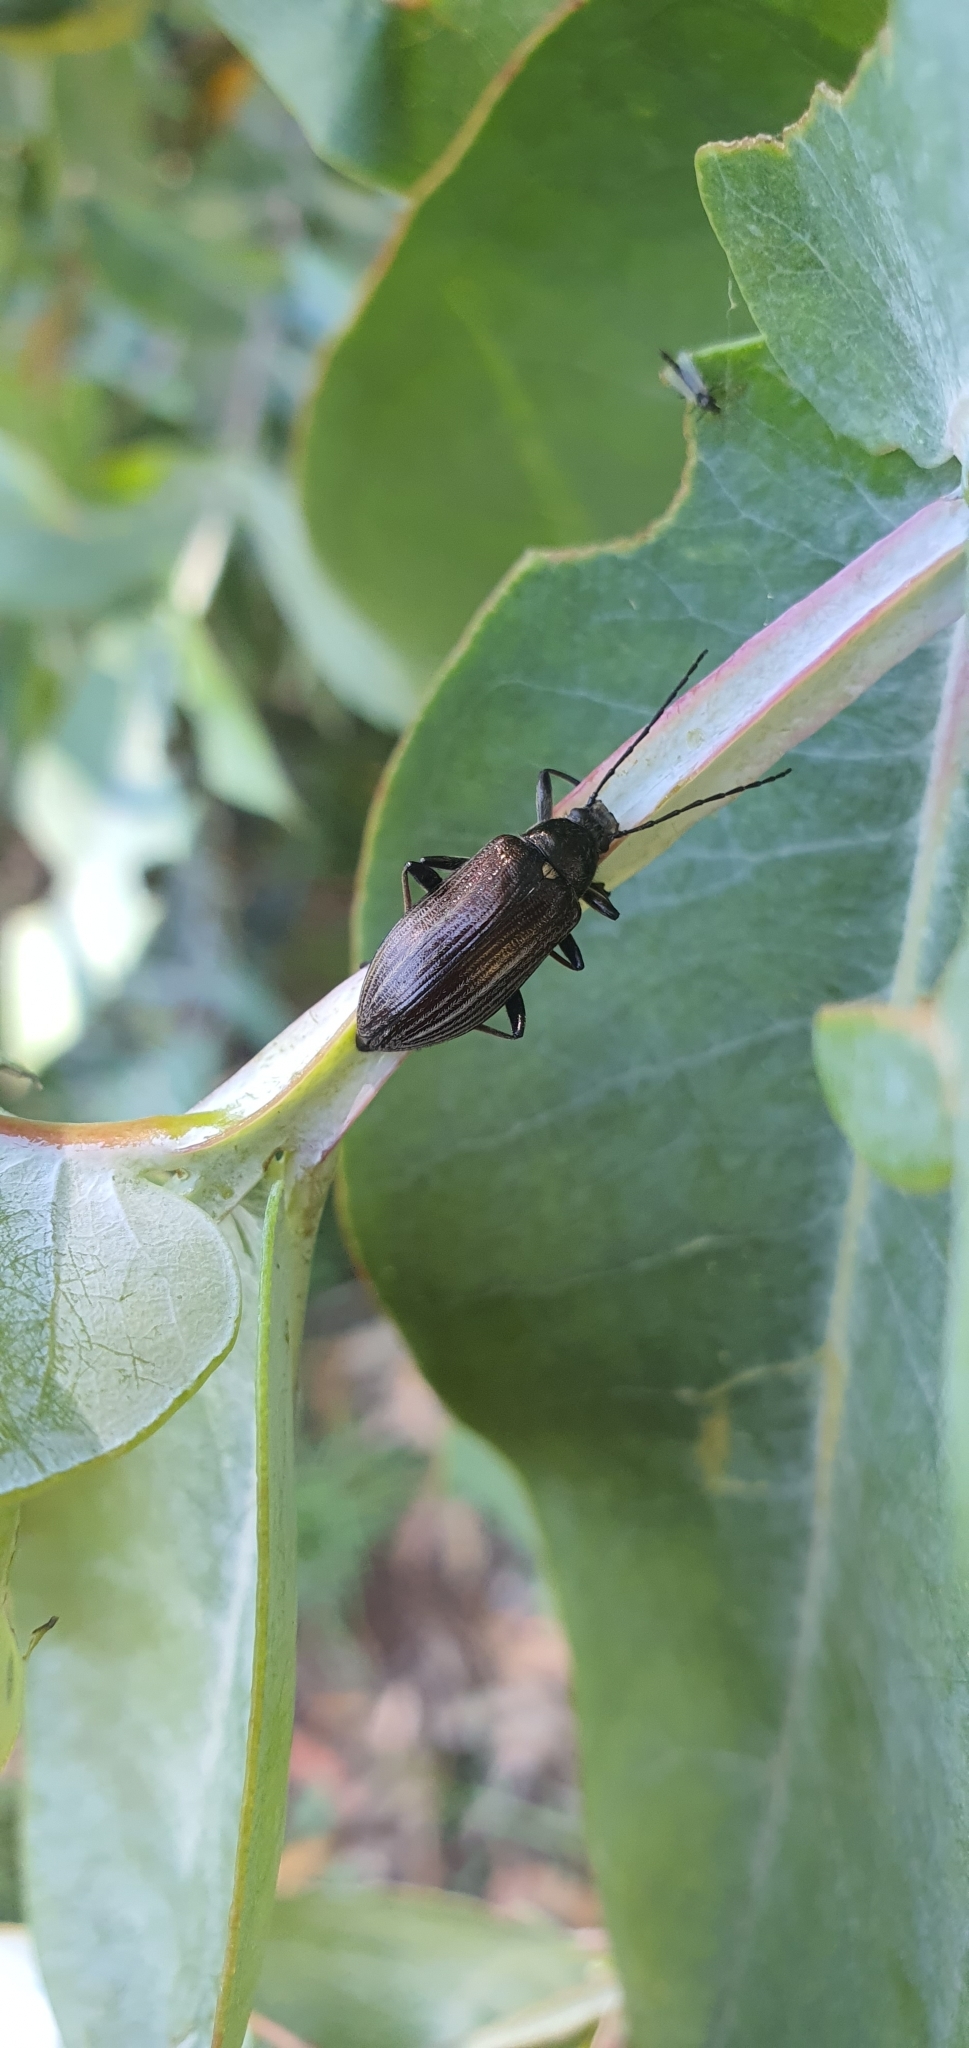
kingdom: Animalia
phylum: Arthropoda
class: Insecta
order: Coleoptera
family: Tenebrionidae
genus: Homotrysis
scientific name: Homotrysis
